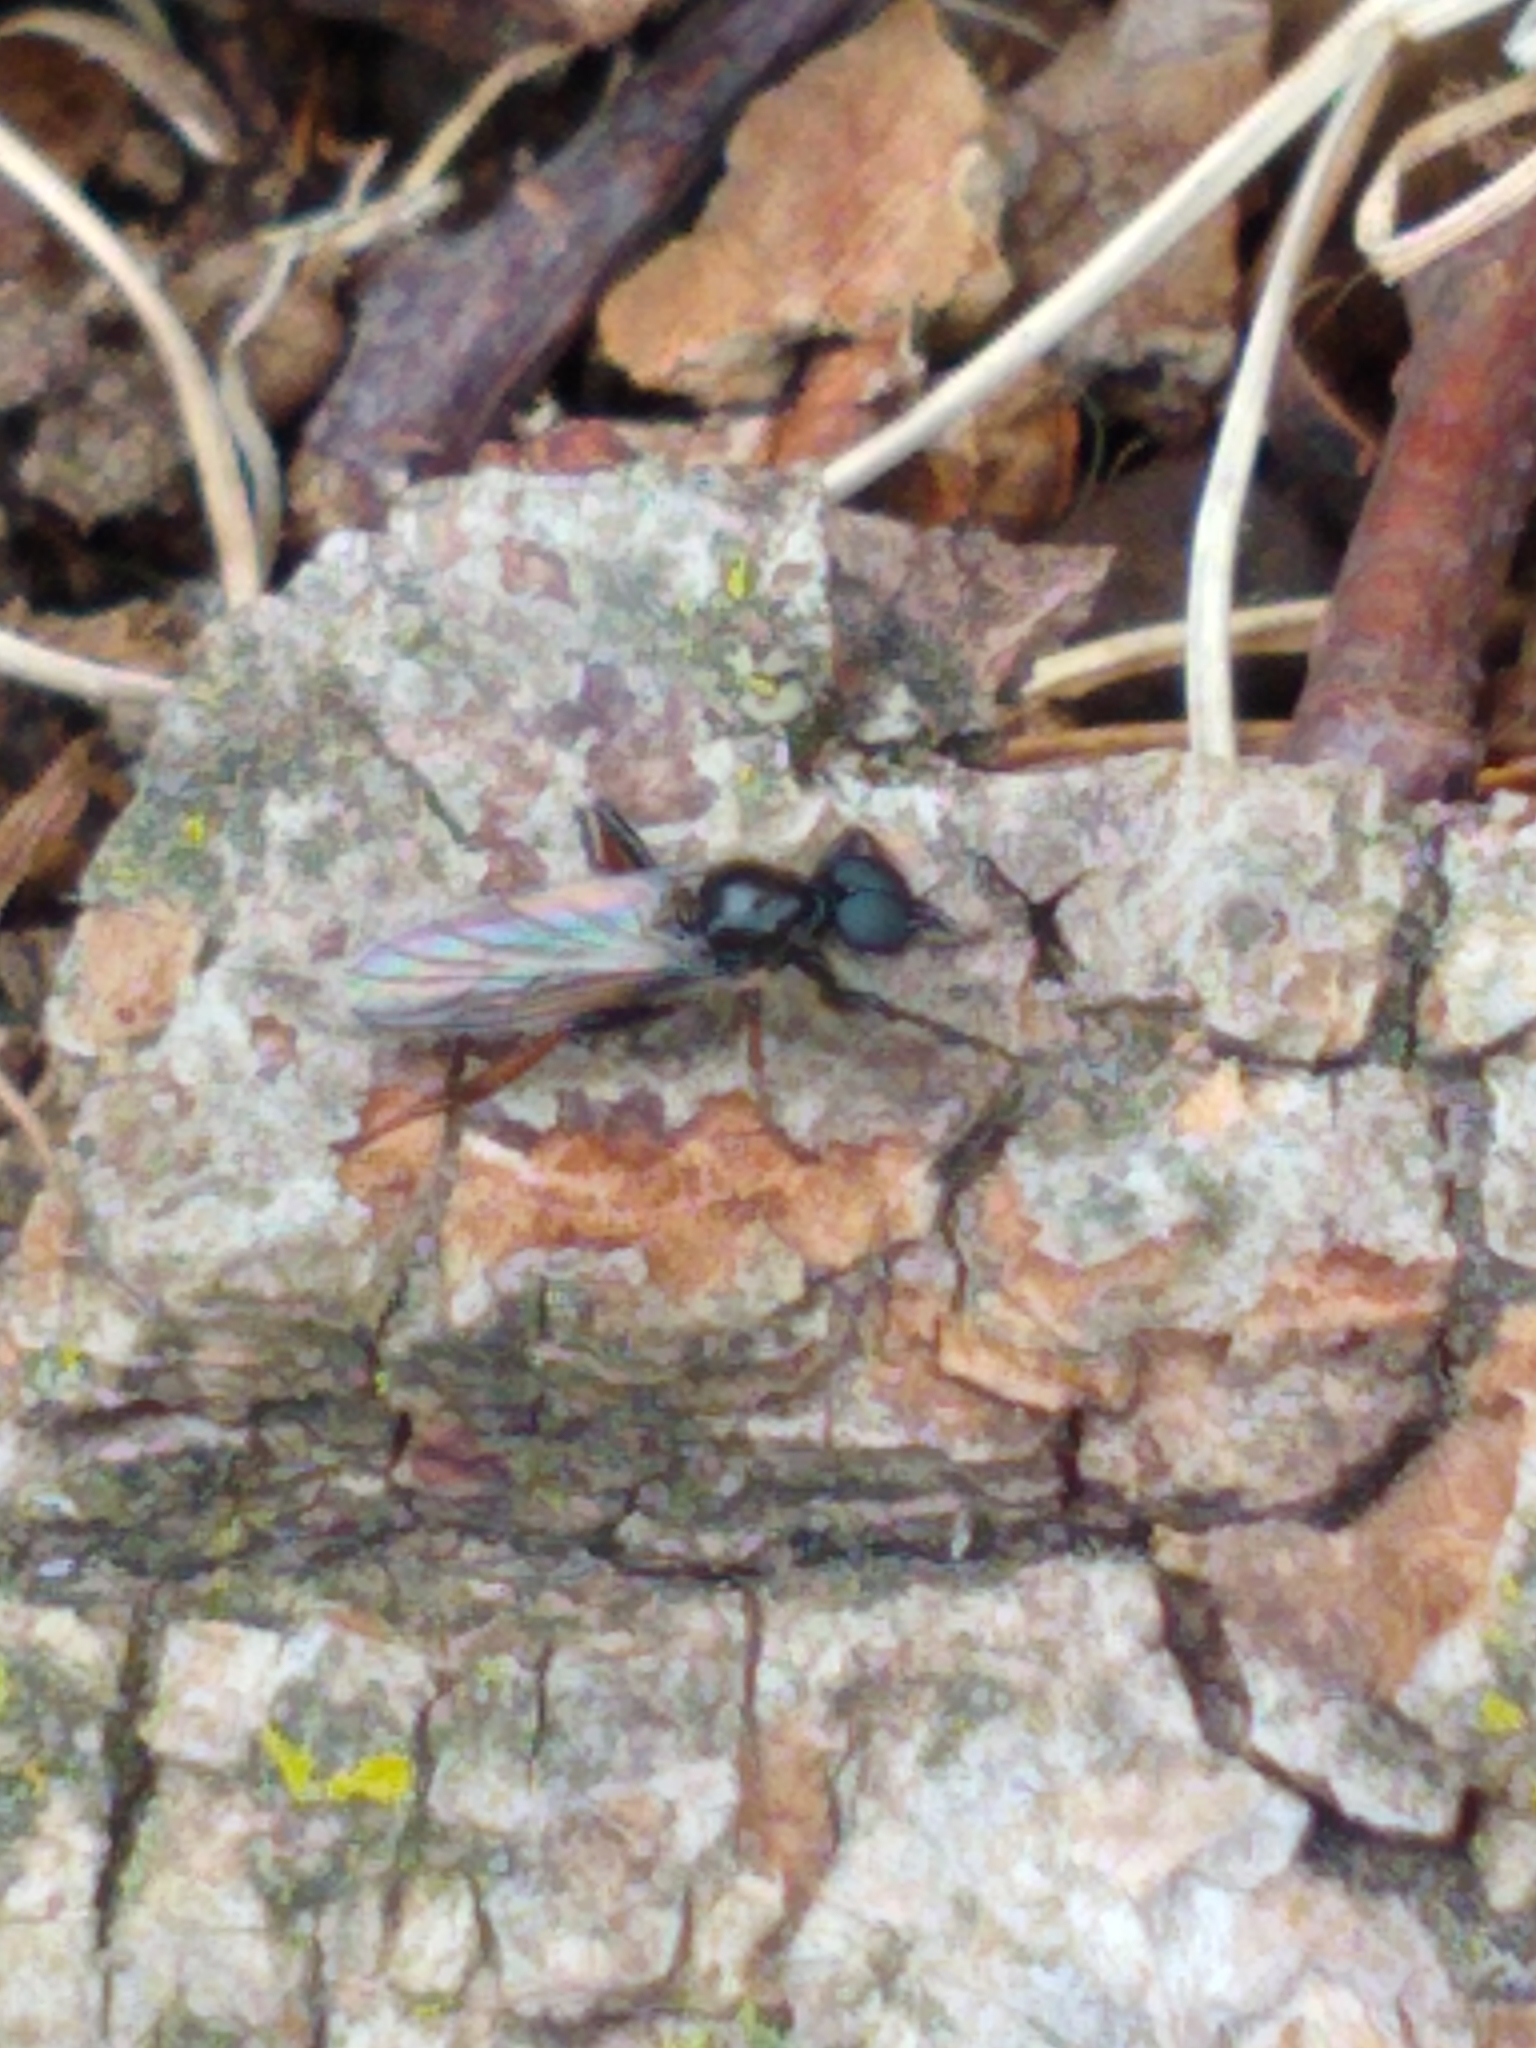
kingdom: Animalia
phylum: Arthropoda
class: Insecta
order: Diptera
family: Bibionidae
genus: Bibio
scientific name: Bibio lanigerus
